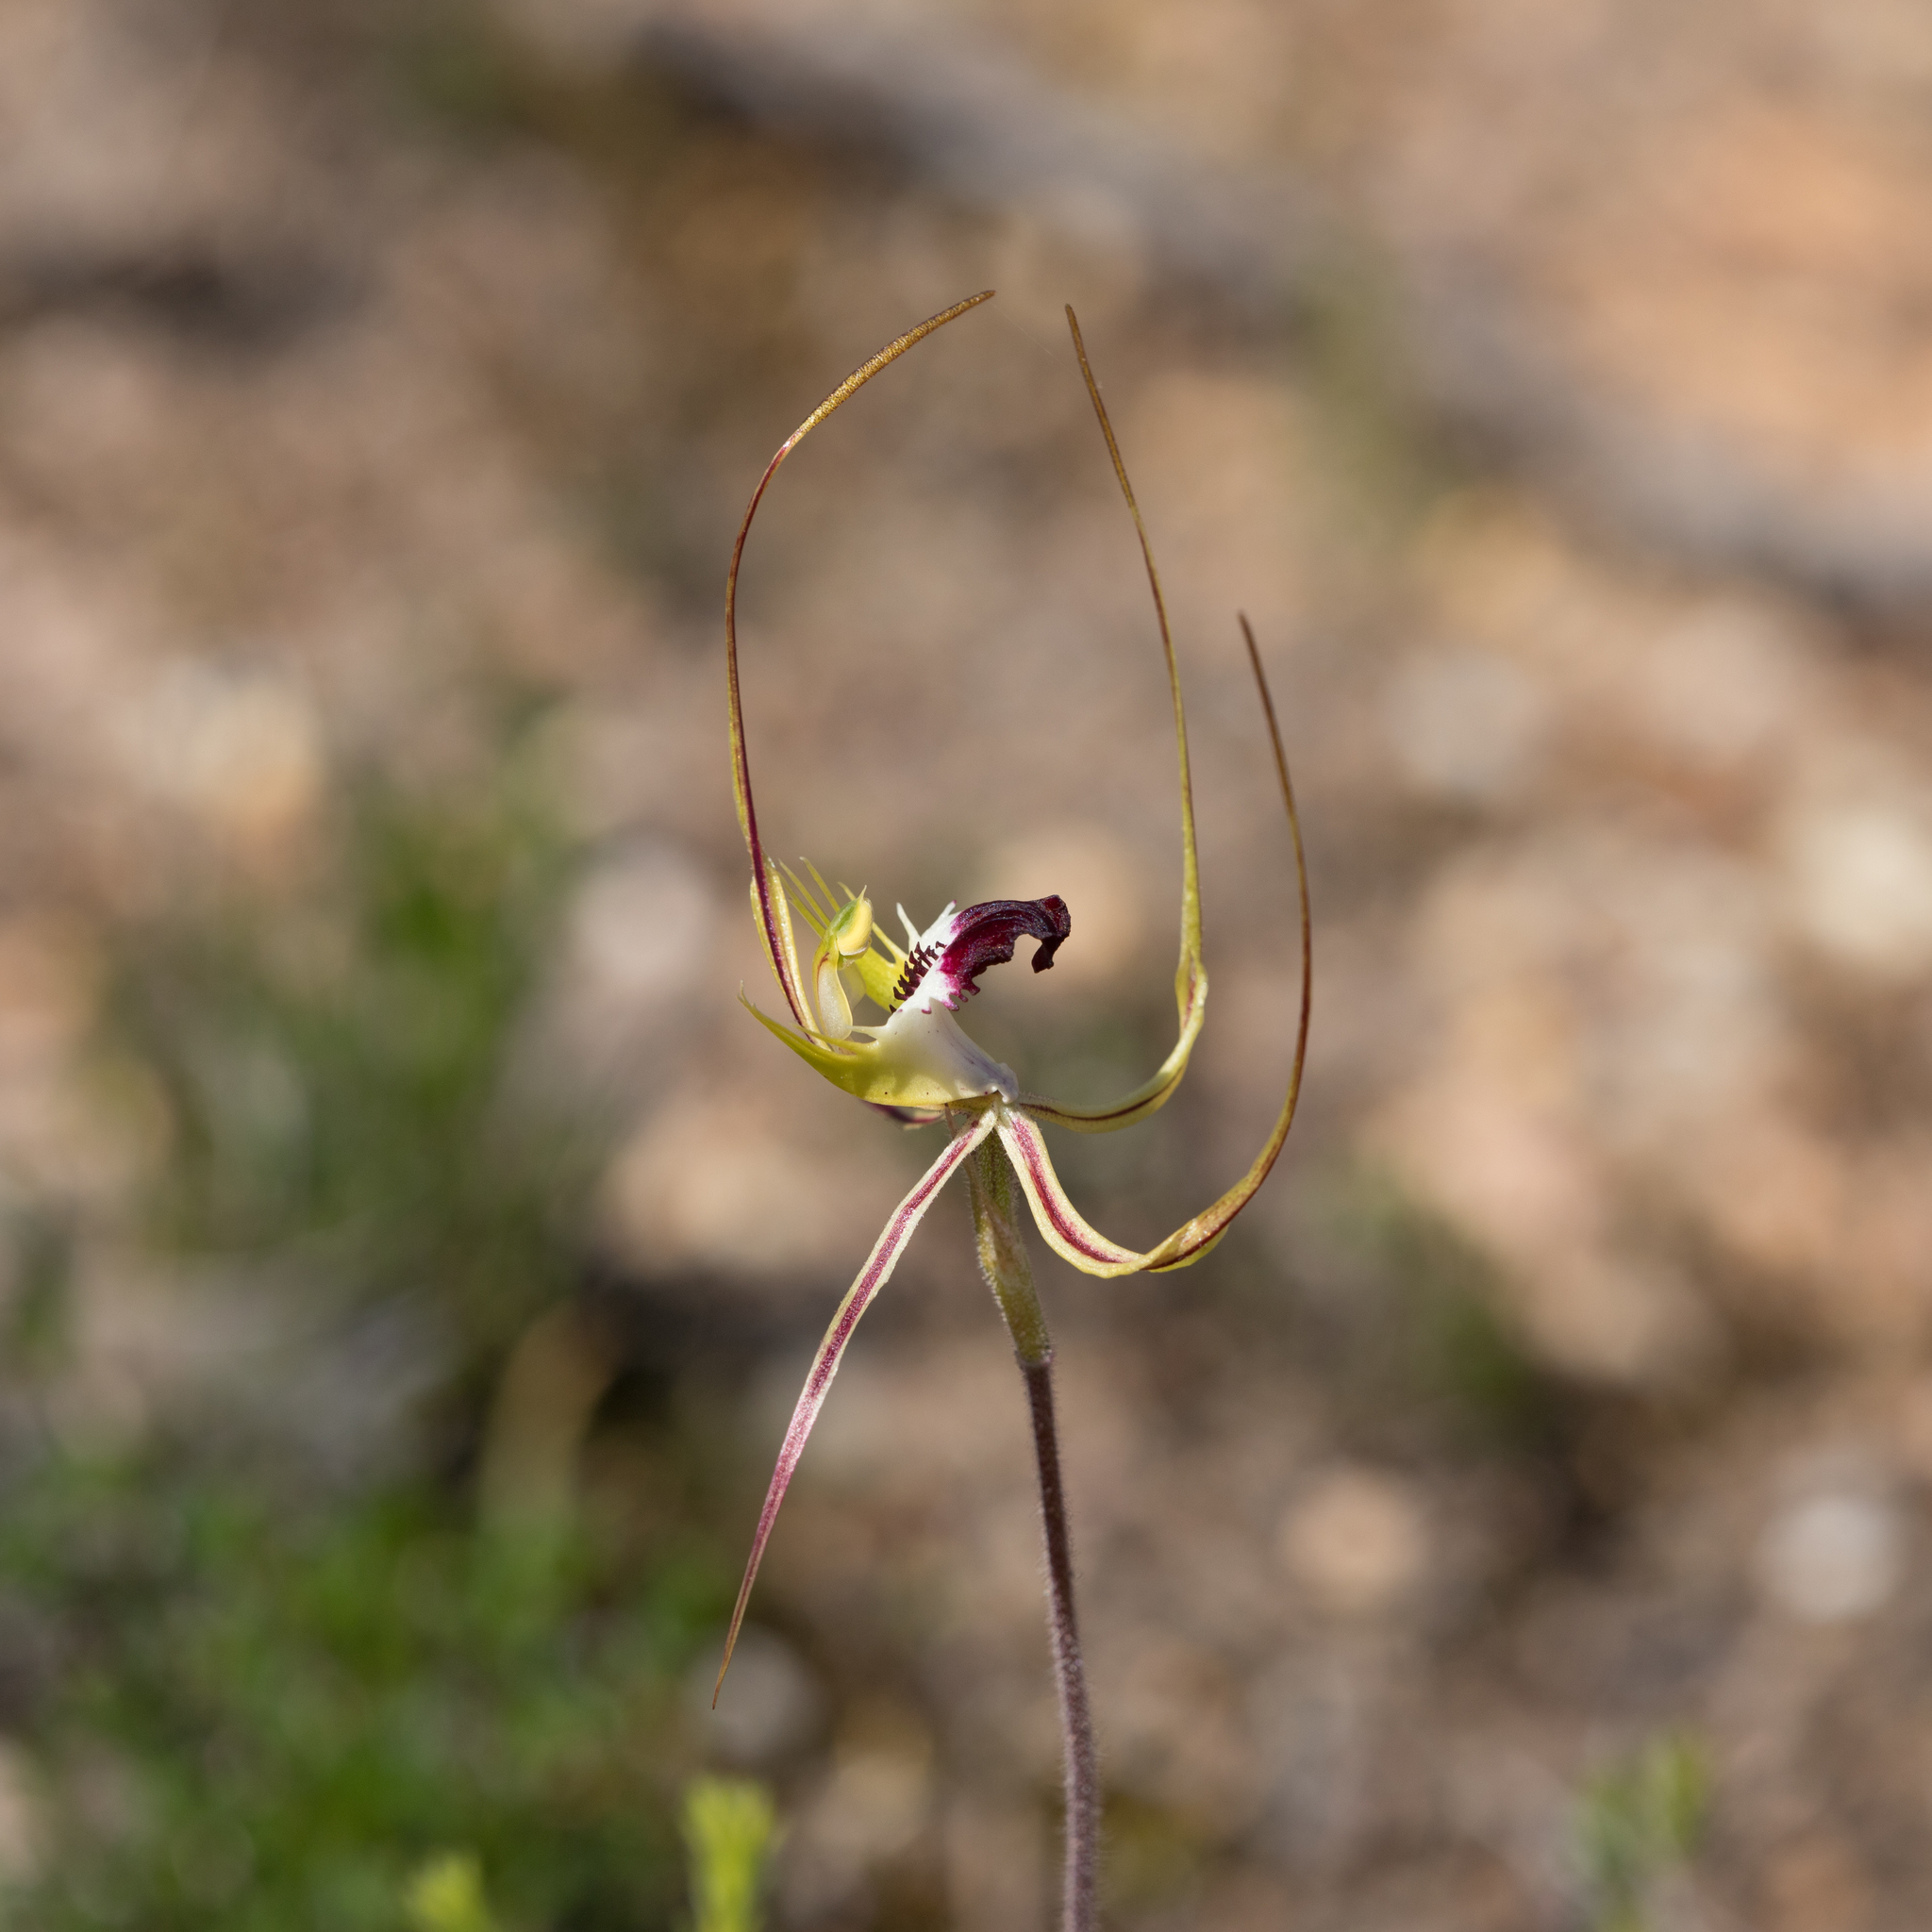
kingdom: Plantae
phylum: Tracheophyta
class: Liliopsida
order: Asparagales
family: Orchidaceae
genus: Caladenia
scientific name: Caladenia tentaculata
